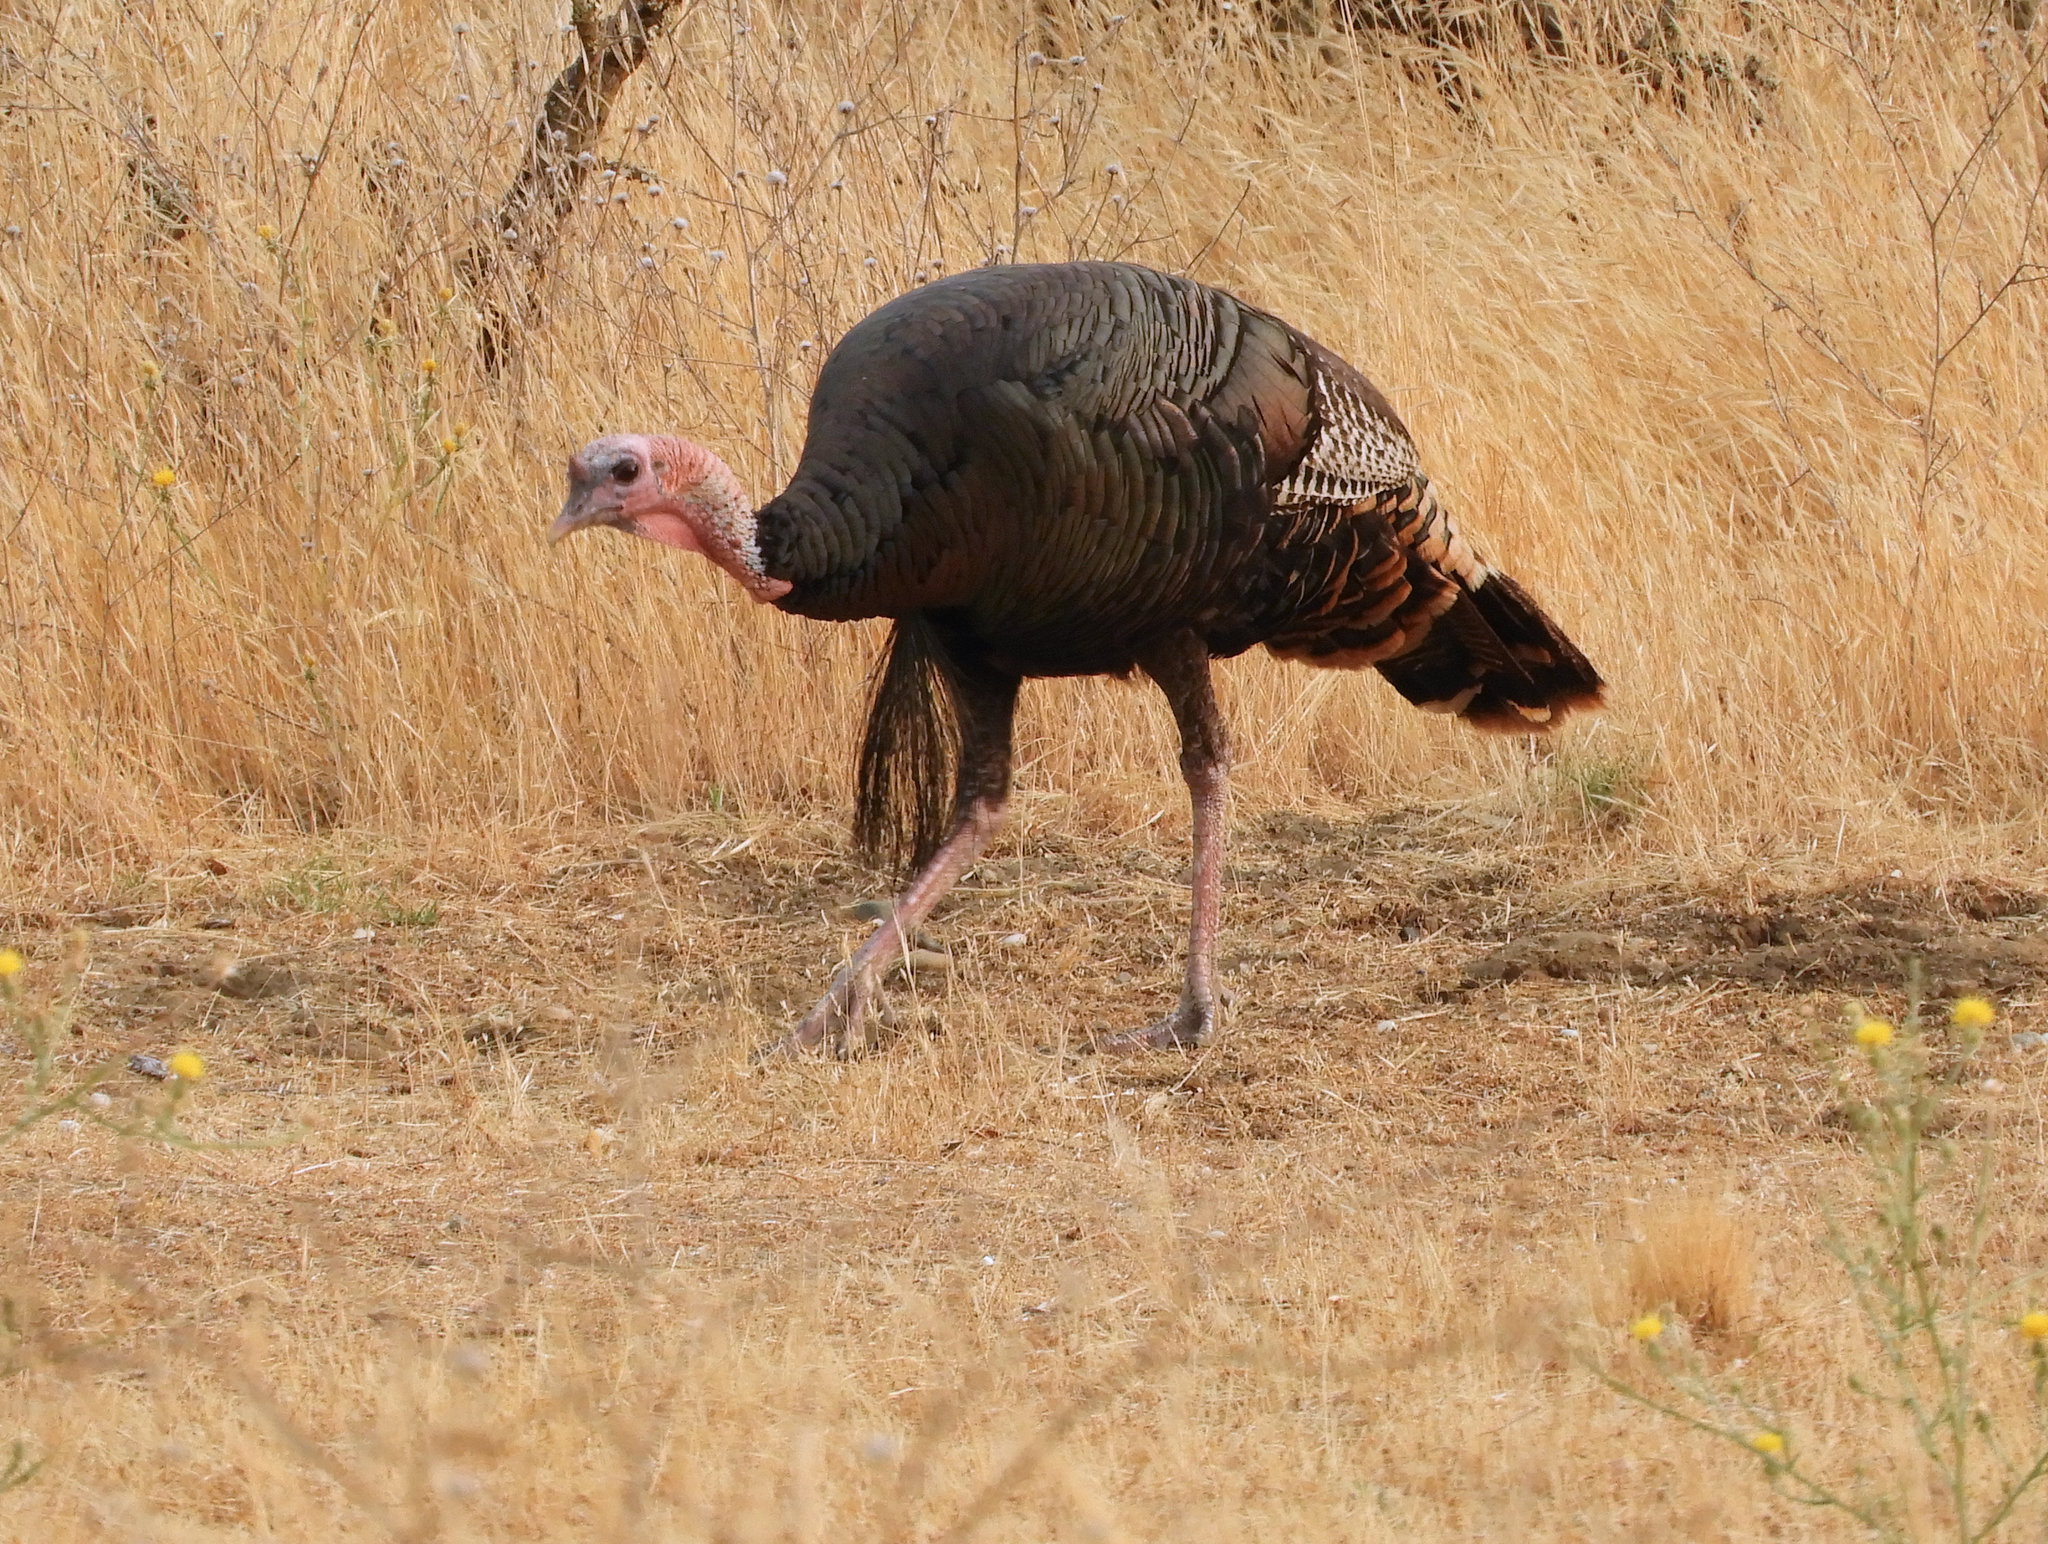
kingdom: Animalia
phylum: Chordata
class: Aves
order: Galliformes
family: Phasianidae
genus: Meleagris
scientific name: Meleagris gallopavo
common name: Wild turkey
